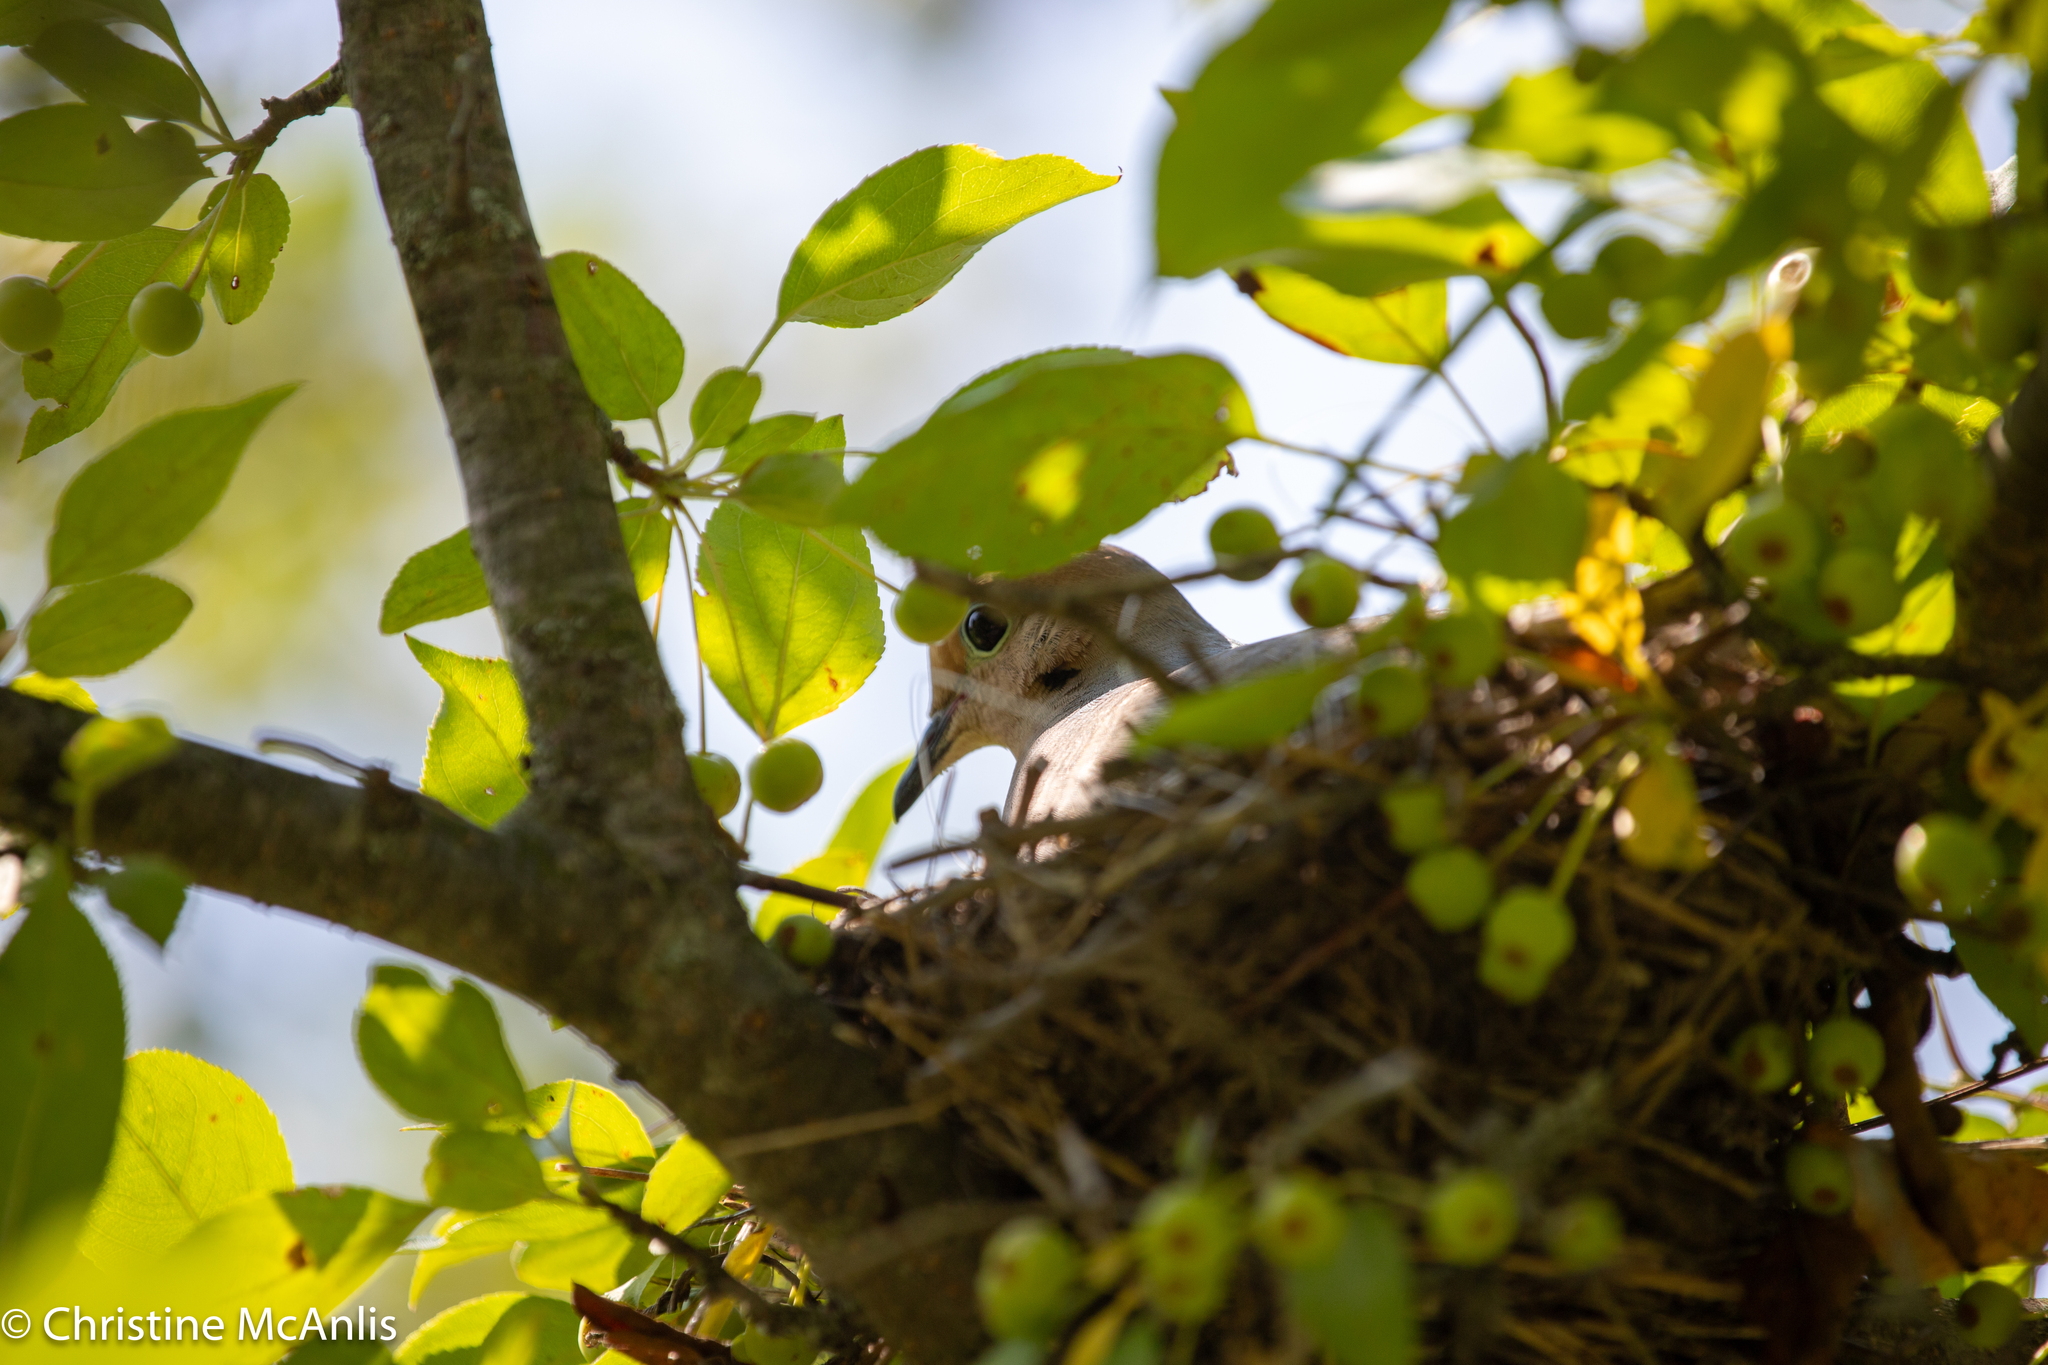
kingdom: Animalia
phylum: Chordata
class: Aves
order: Columbiformes
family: Columbidae
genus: Zenaida
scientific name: Zenaida macroura
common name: Mourning dove
